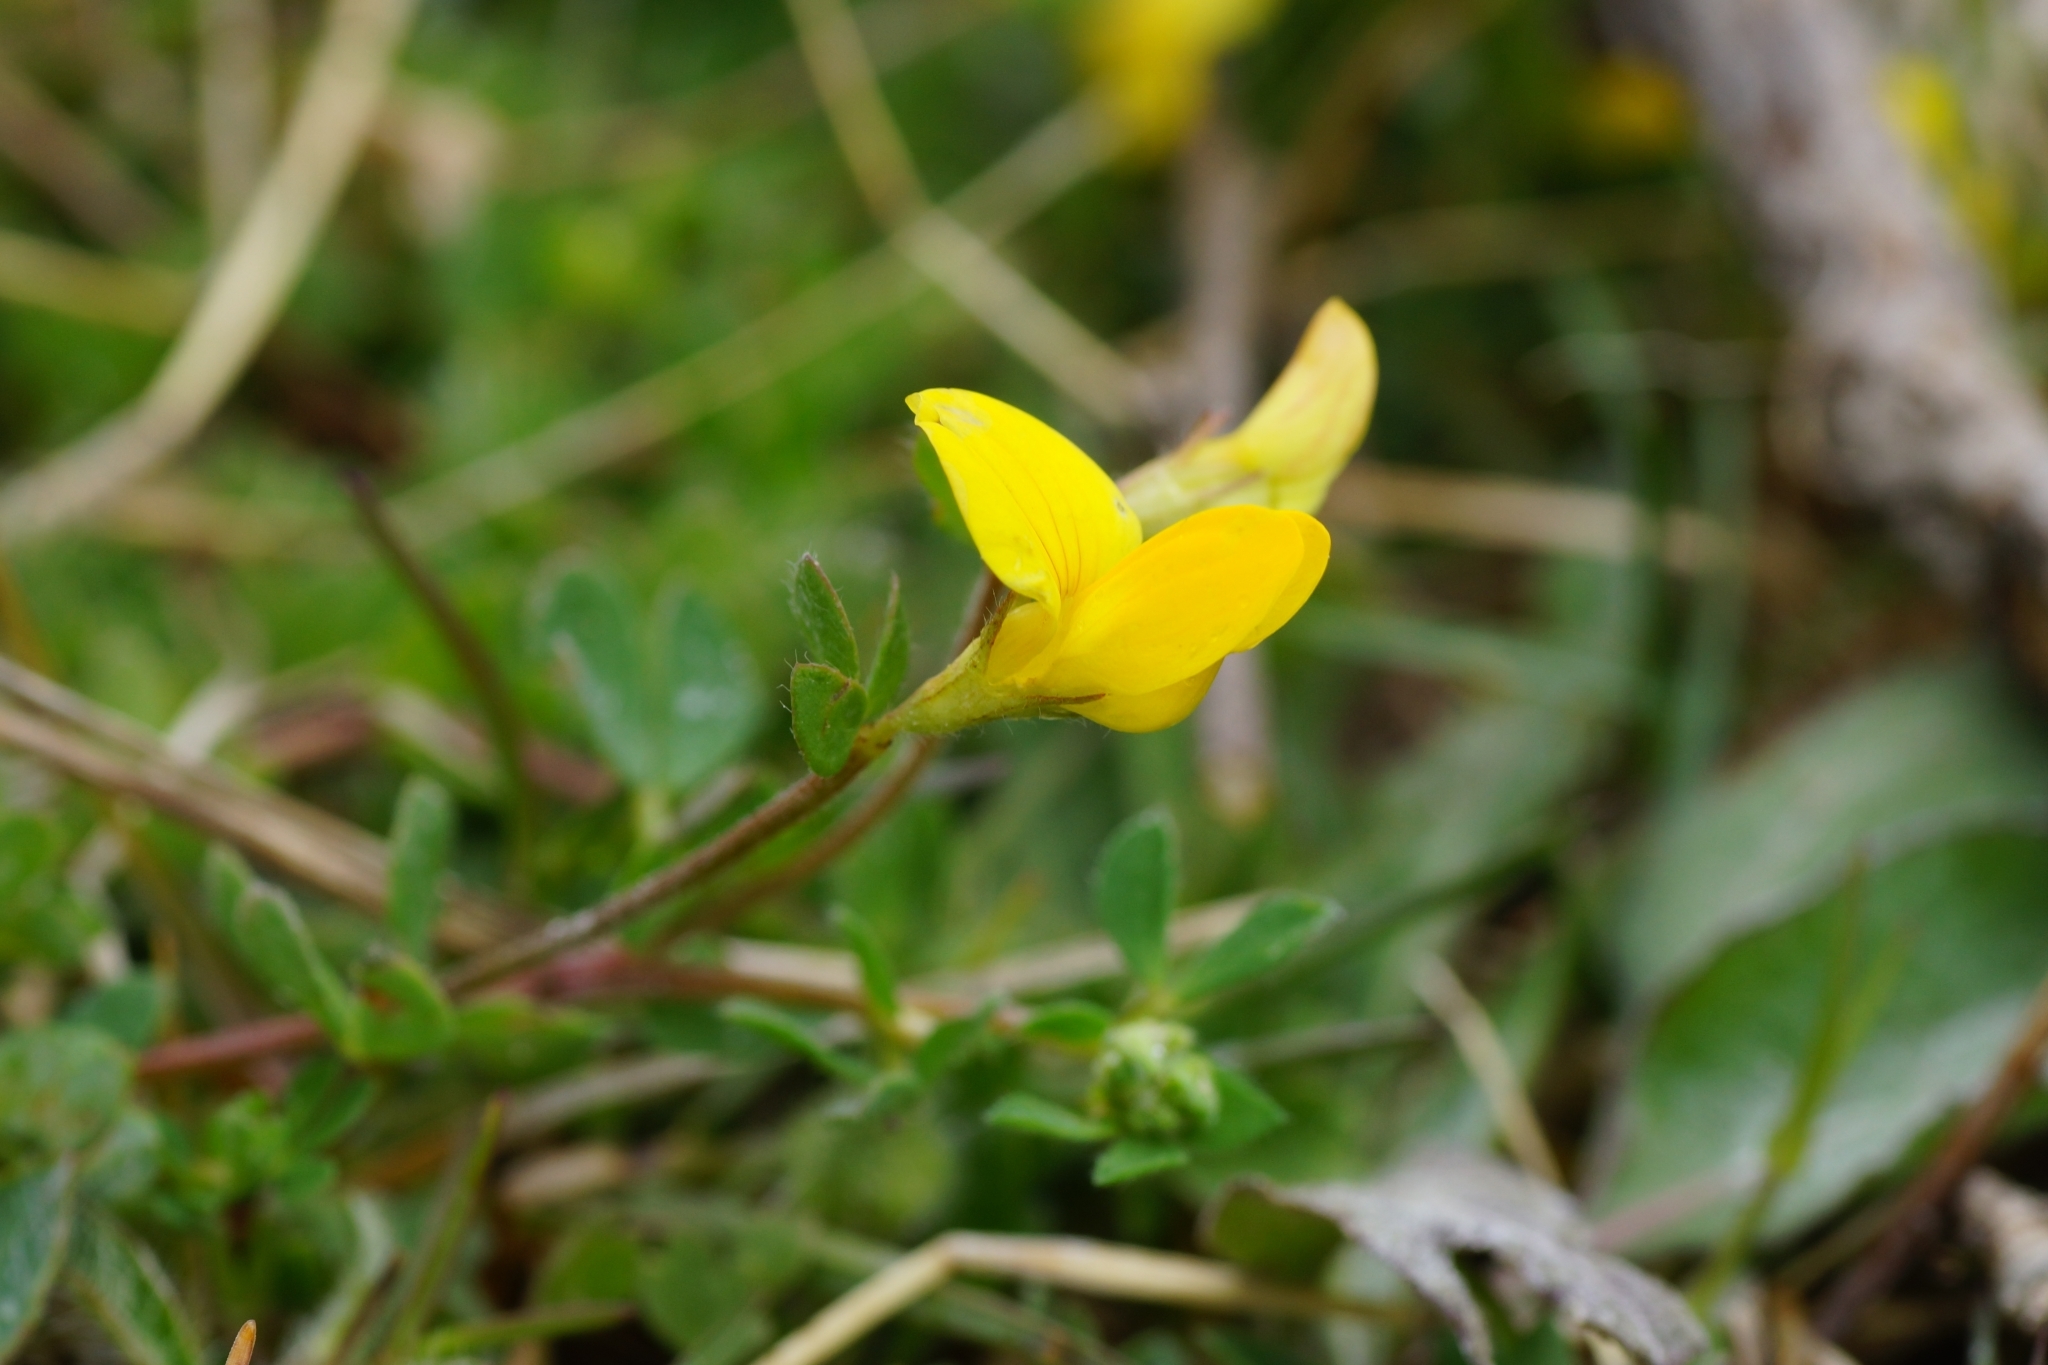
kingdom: Plantae
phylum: Tracheophyta
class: Magnoliopsida
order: Fabales
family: Fabaceae
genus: Lotus
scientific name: Lotus corniculatus
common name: Common bird's-foot-trefoil
